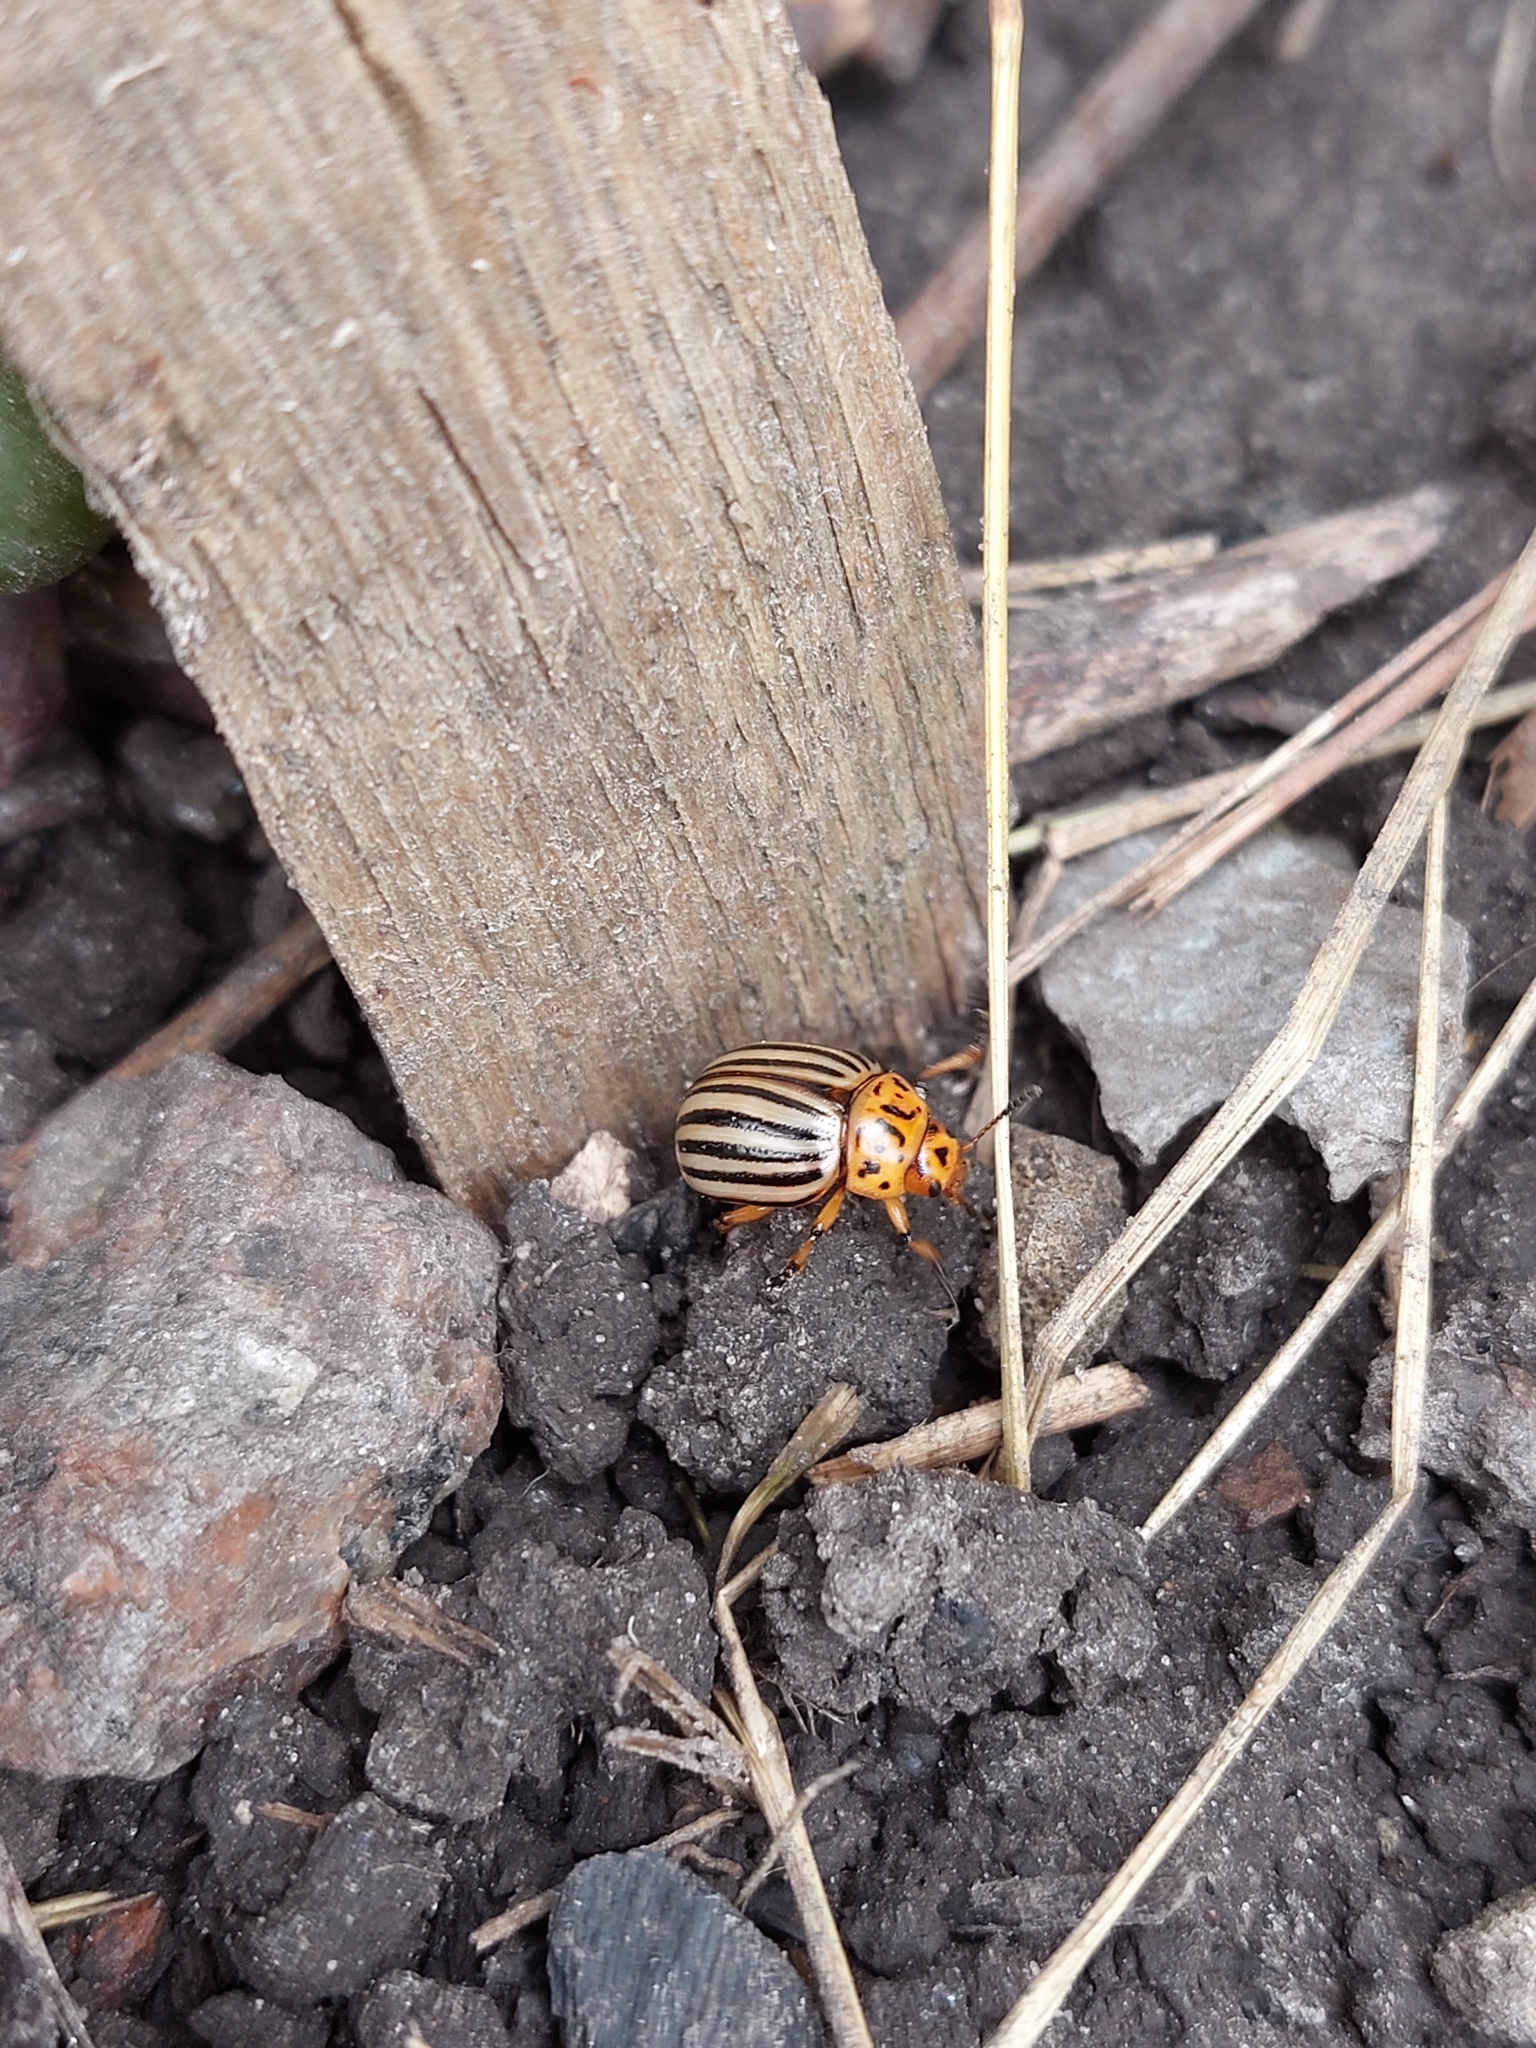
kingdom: Animalia
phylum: Arthropoda
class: Insecta
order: Coleoptera
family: Chrysomelidae
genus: Leptinotarsa
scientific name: Leptinotarsa decemlineata
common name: Colorado potato beetle
